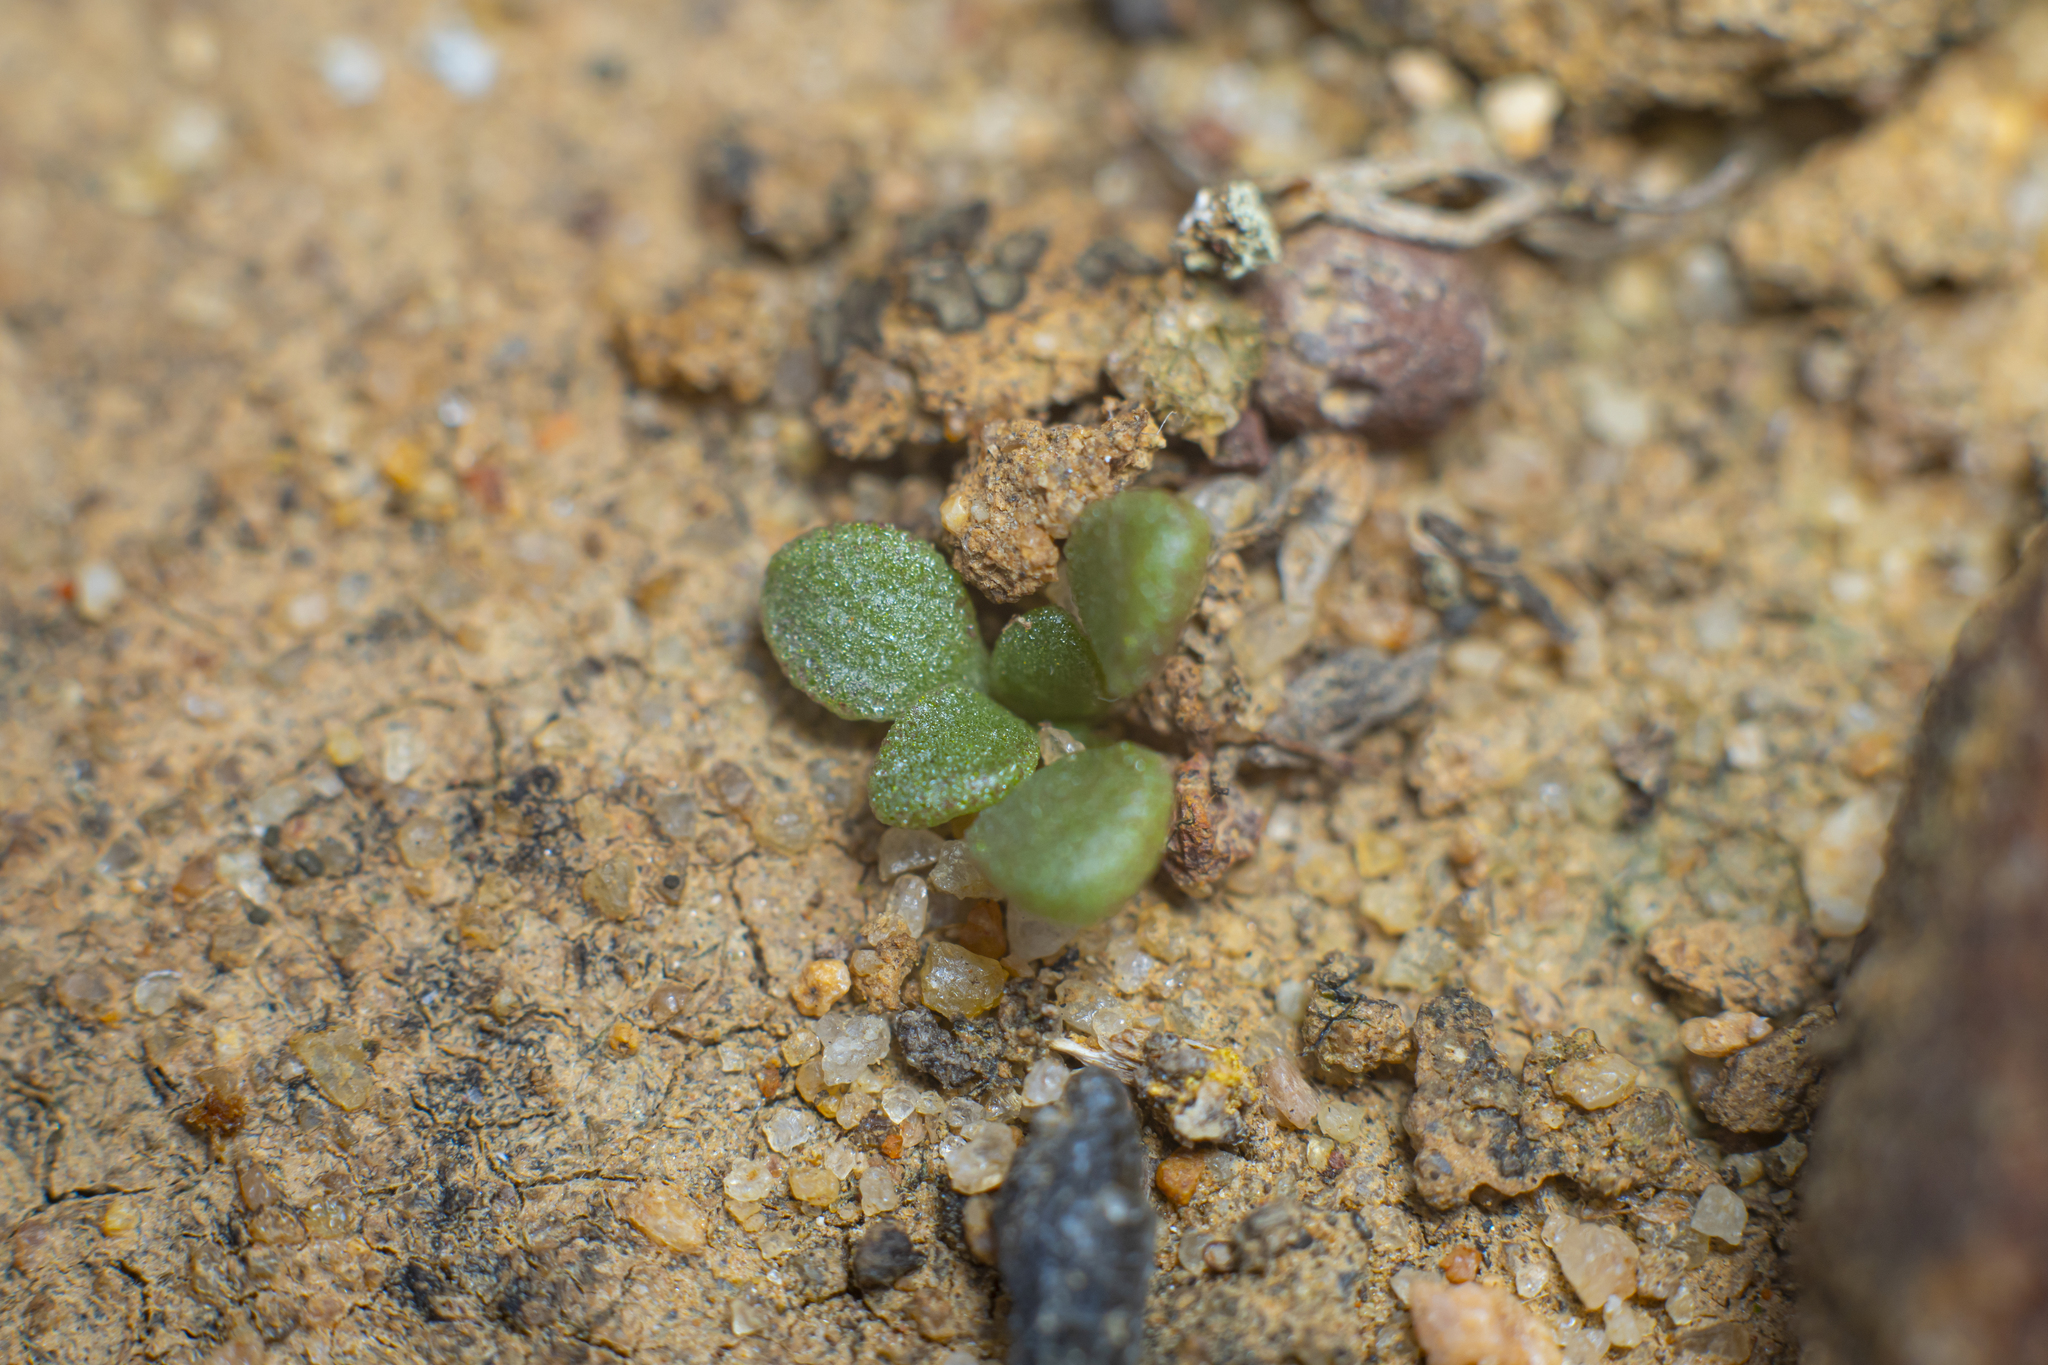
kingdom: Plantae
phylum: Tracheophyta
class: Magnoliopsida
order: Saxifragales
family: Crassulaceae
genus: Dudleya
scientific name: Dudleya blochmaniae
